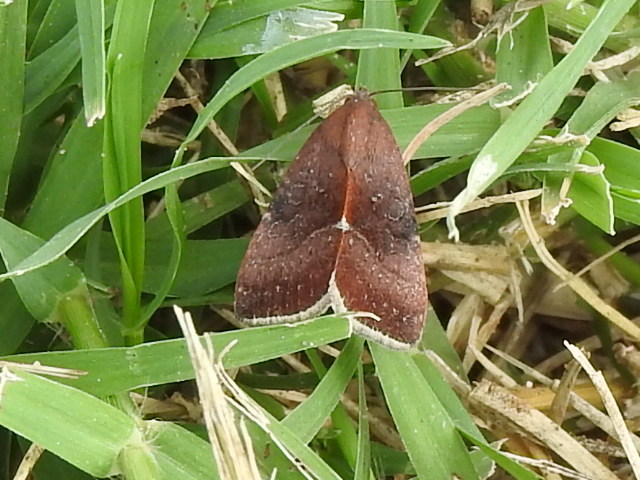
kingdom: Animalia
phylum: Arthropoda
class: Insecta
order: Lepidoptera
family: Noctuidae
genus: Galgula
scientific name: Galgula partita
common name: Wedgeling
